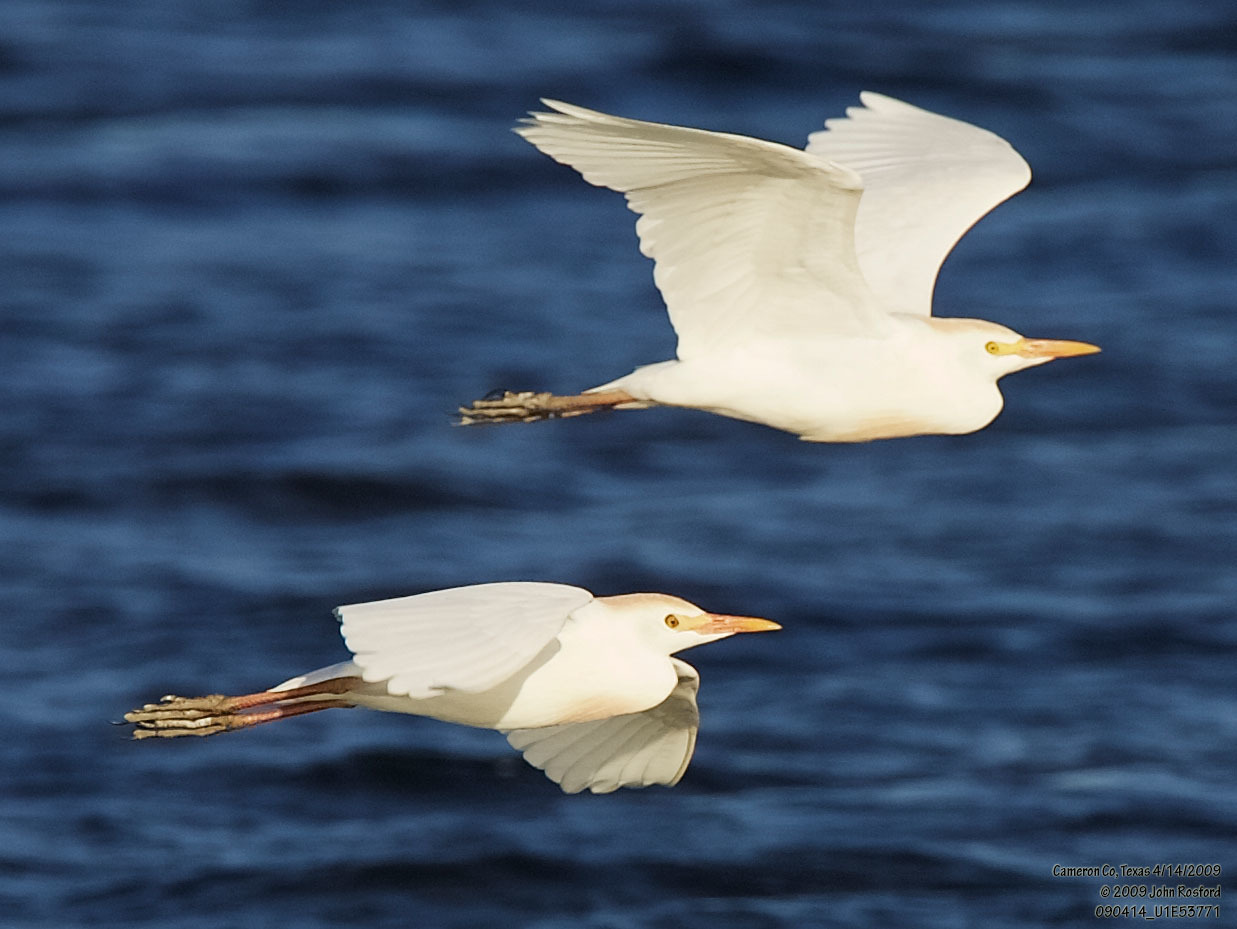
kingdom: Animalia
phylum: Chordata
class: Aves
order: Pelecaniformes
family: Ardeidae
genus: Bubulcus
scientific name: Bubulcus ibis
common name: Cattle egret
